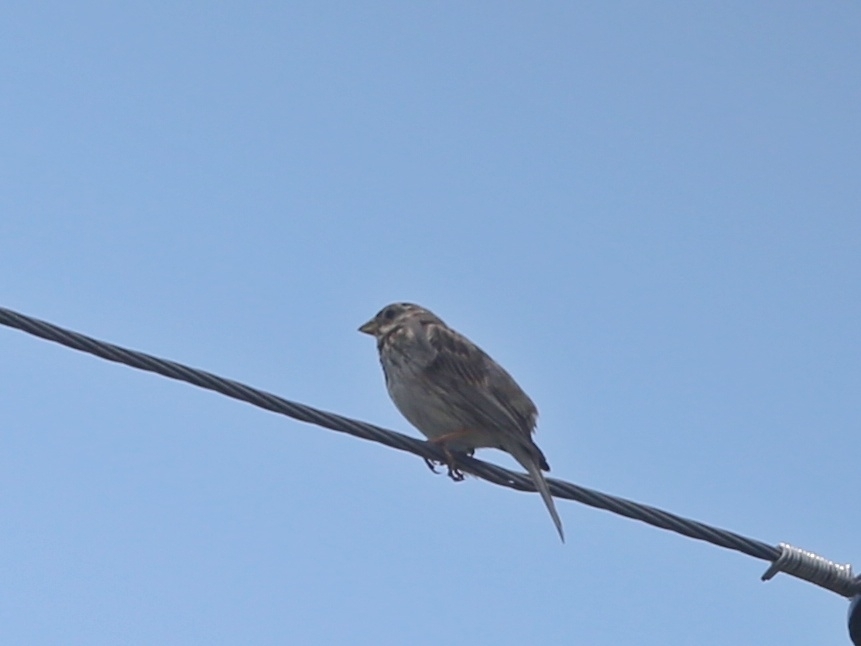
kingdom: Animalia
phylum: Chordata
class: Aves
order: Passeriformes
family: Emberizidae
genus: Emberiza
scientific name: Emberiza calandra
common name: Corn bunting
